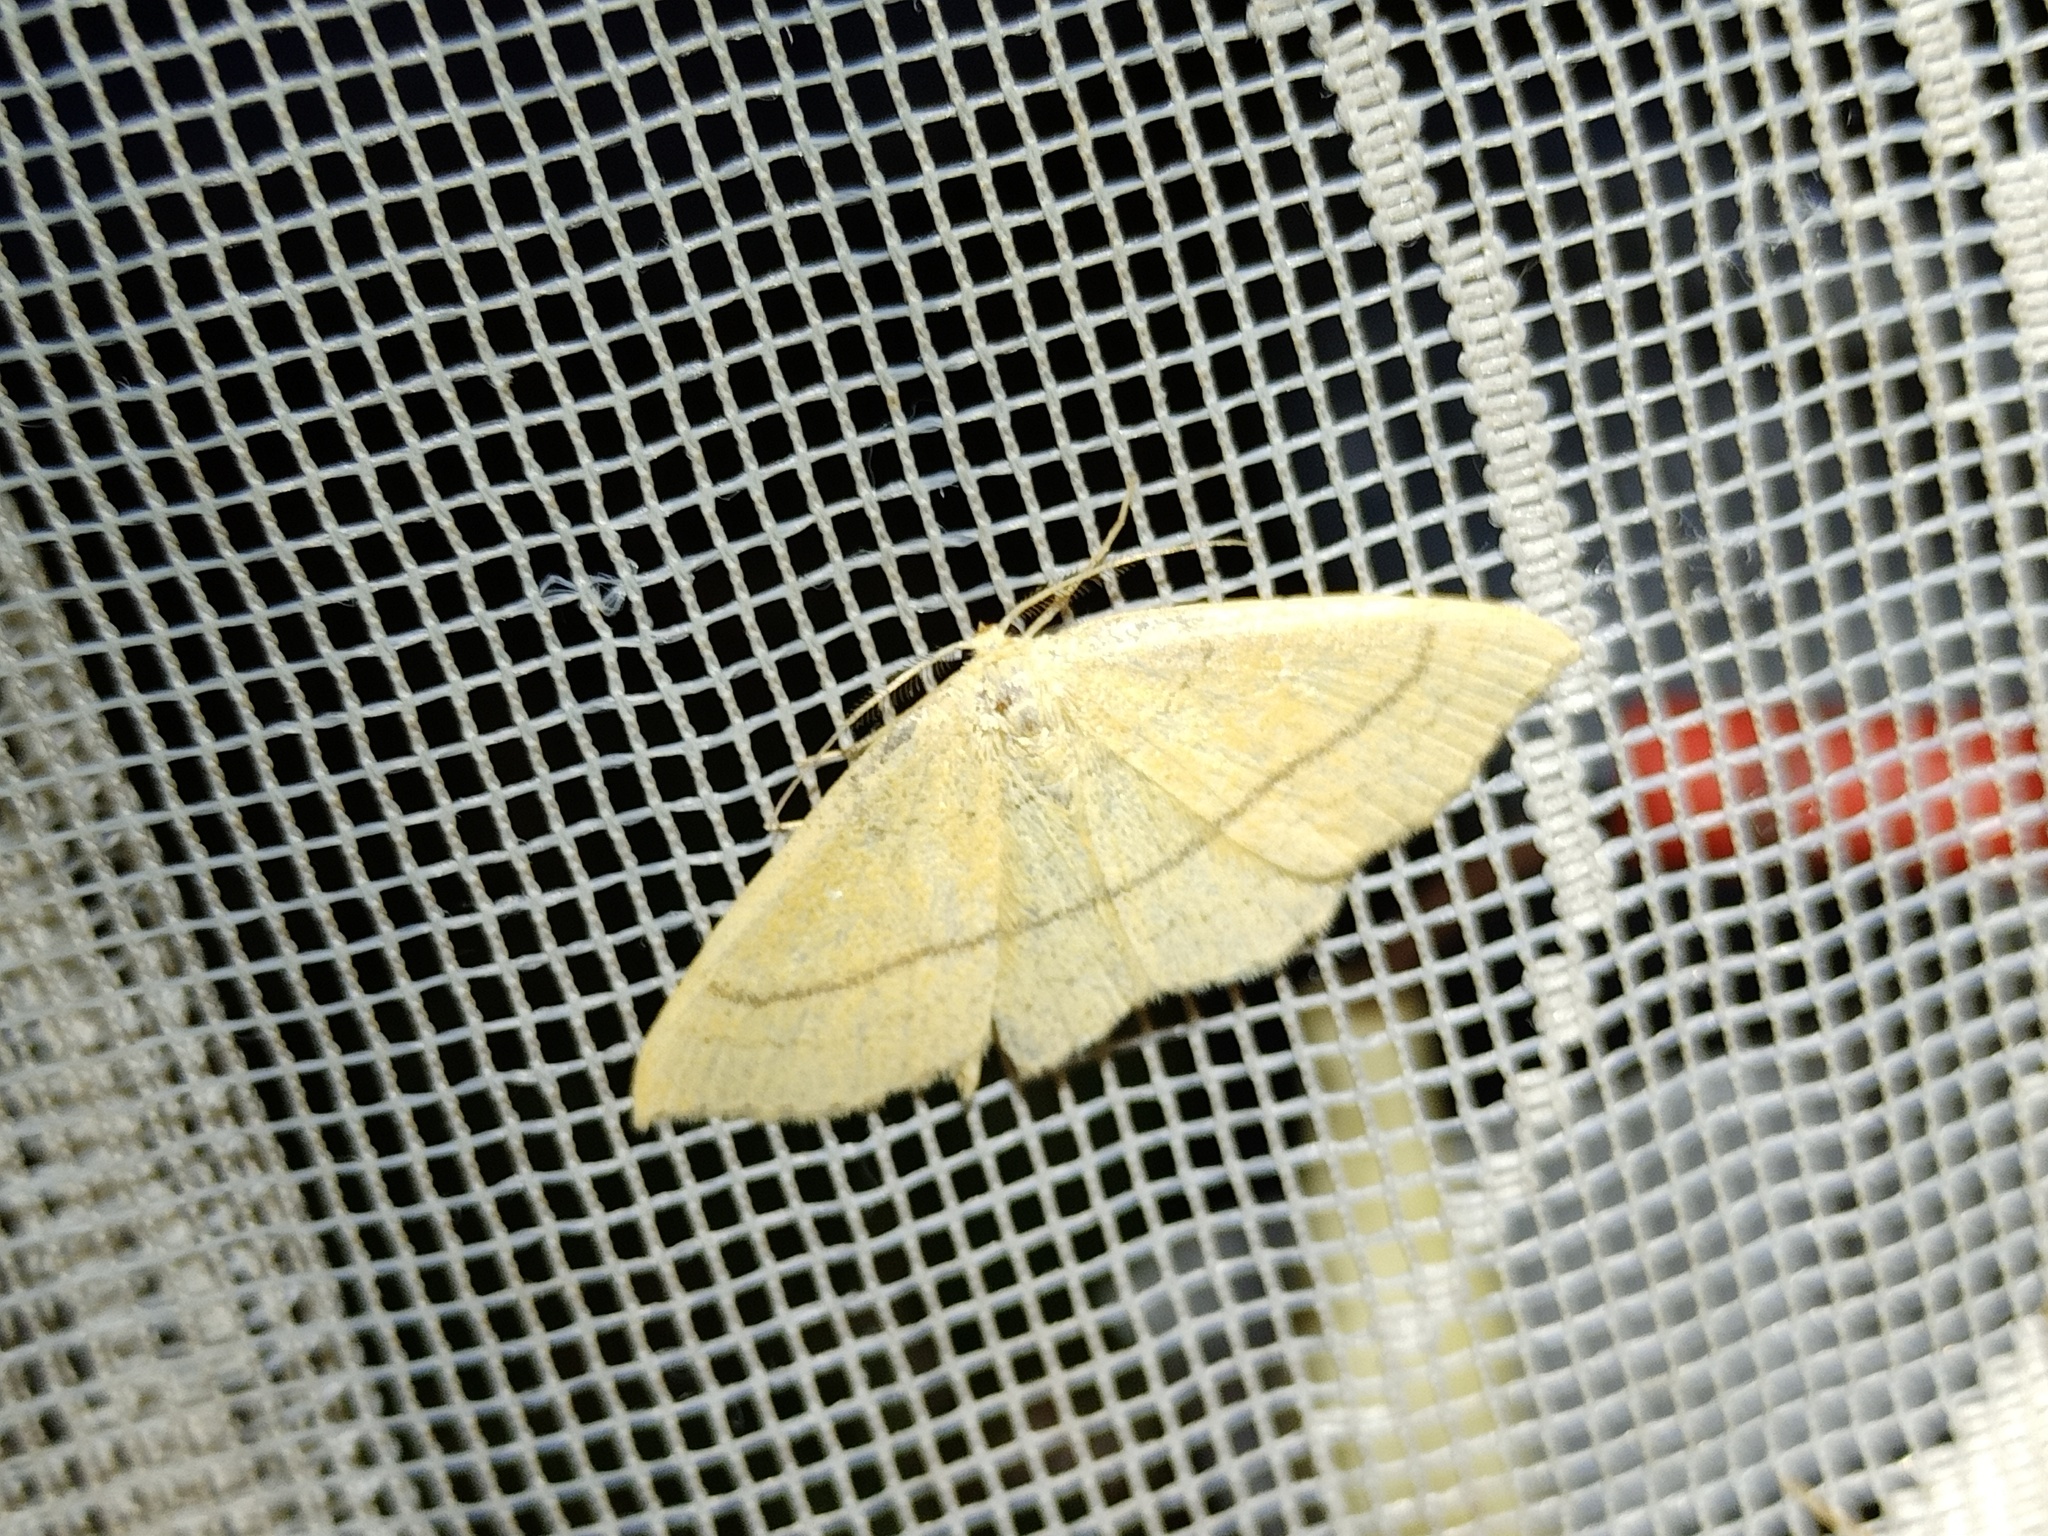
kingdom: Animalia
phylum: Arthropoda
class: Insecta
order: Lepidoptera
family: Geometridae
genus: Cyclophora
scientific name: Cyclophora linearia
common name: Clay triple-lines
